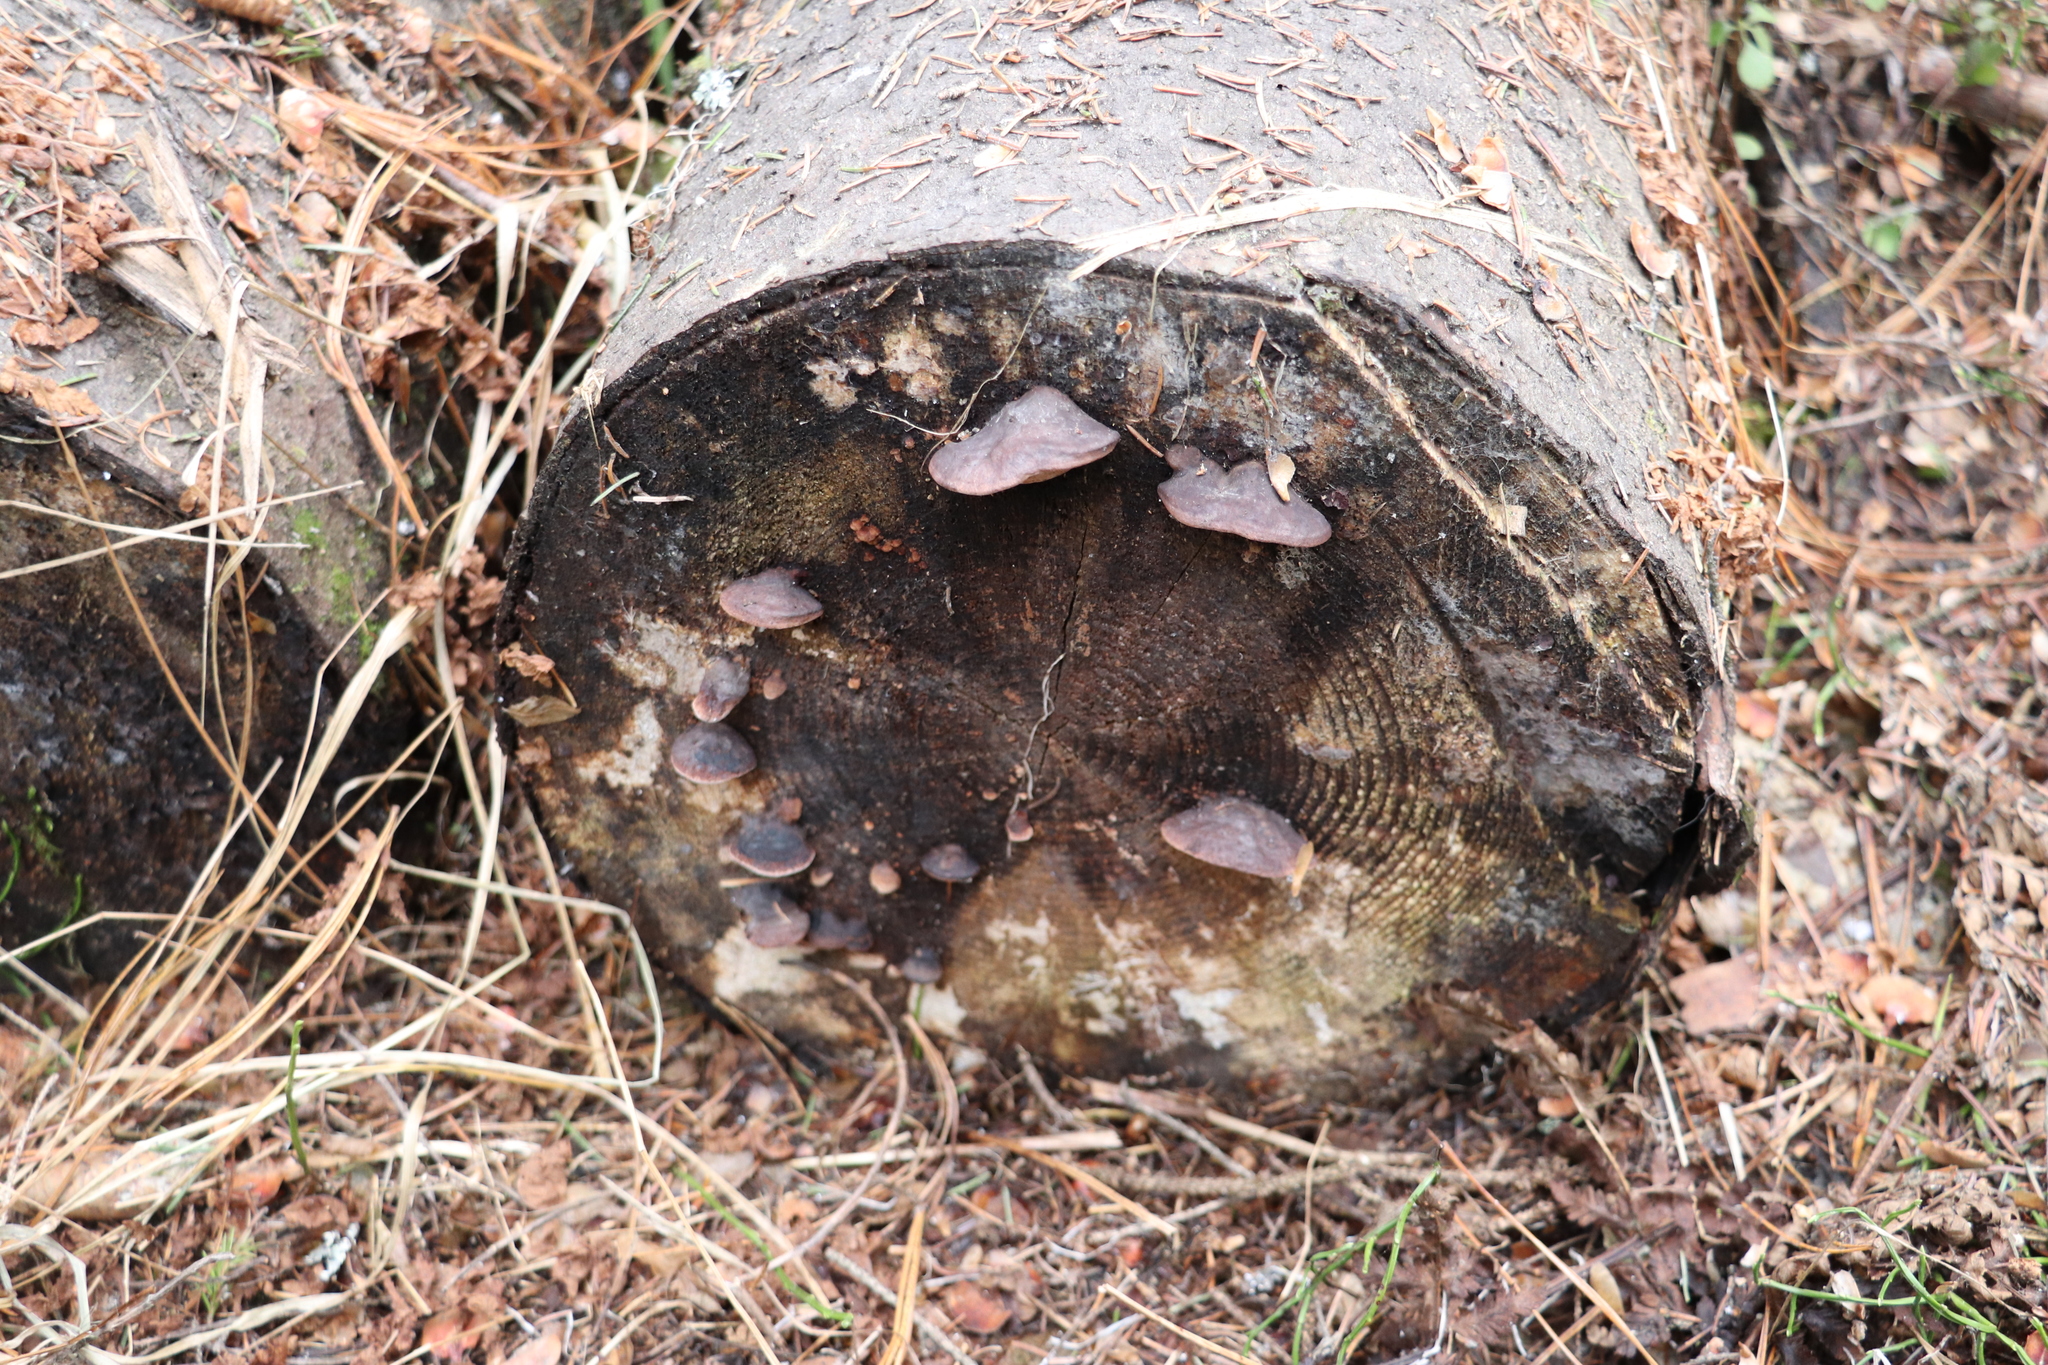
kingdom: Fungi
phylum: Basidiomycota
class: Agaricomycetes
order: Polyporales
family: Fomitopsidaceae
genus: Rhodofomes
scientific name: Rhodofomes roseus
